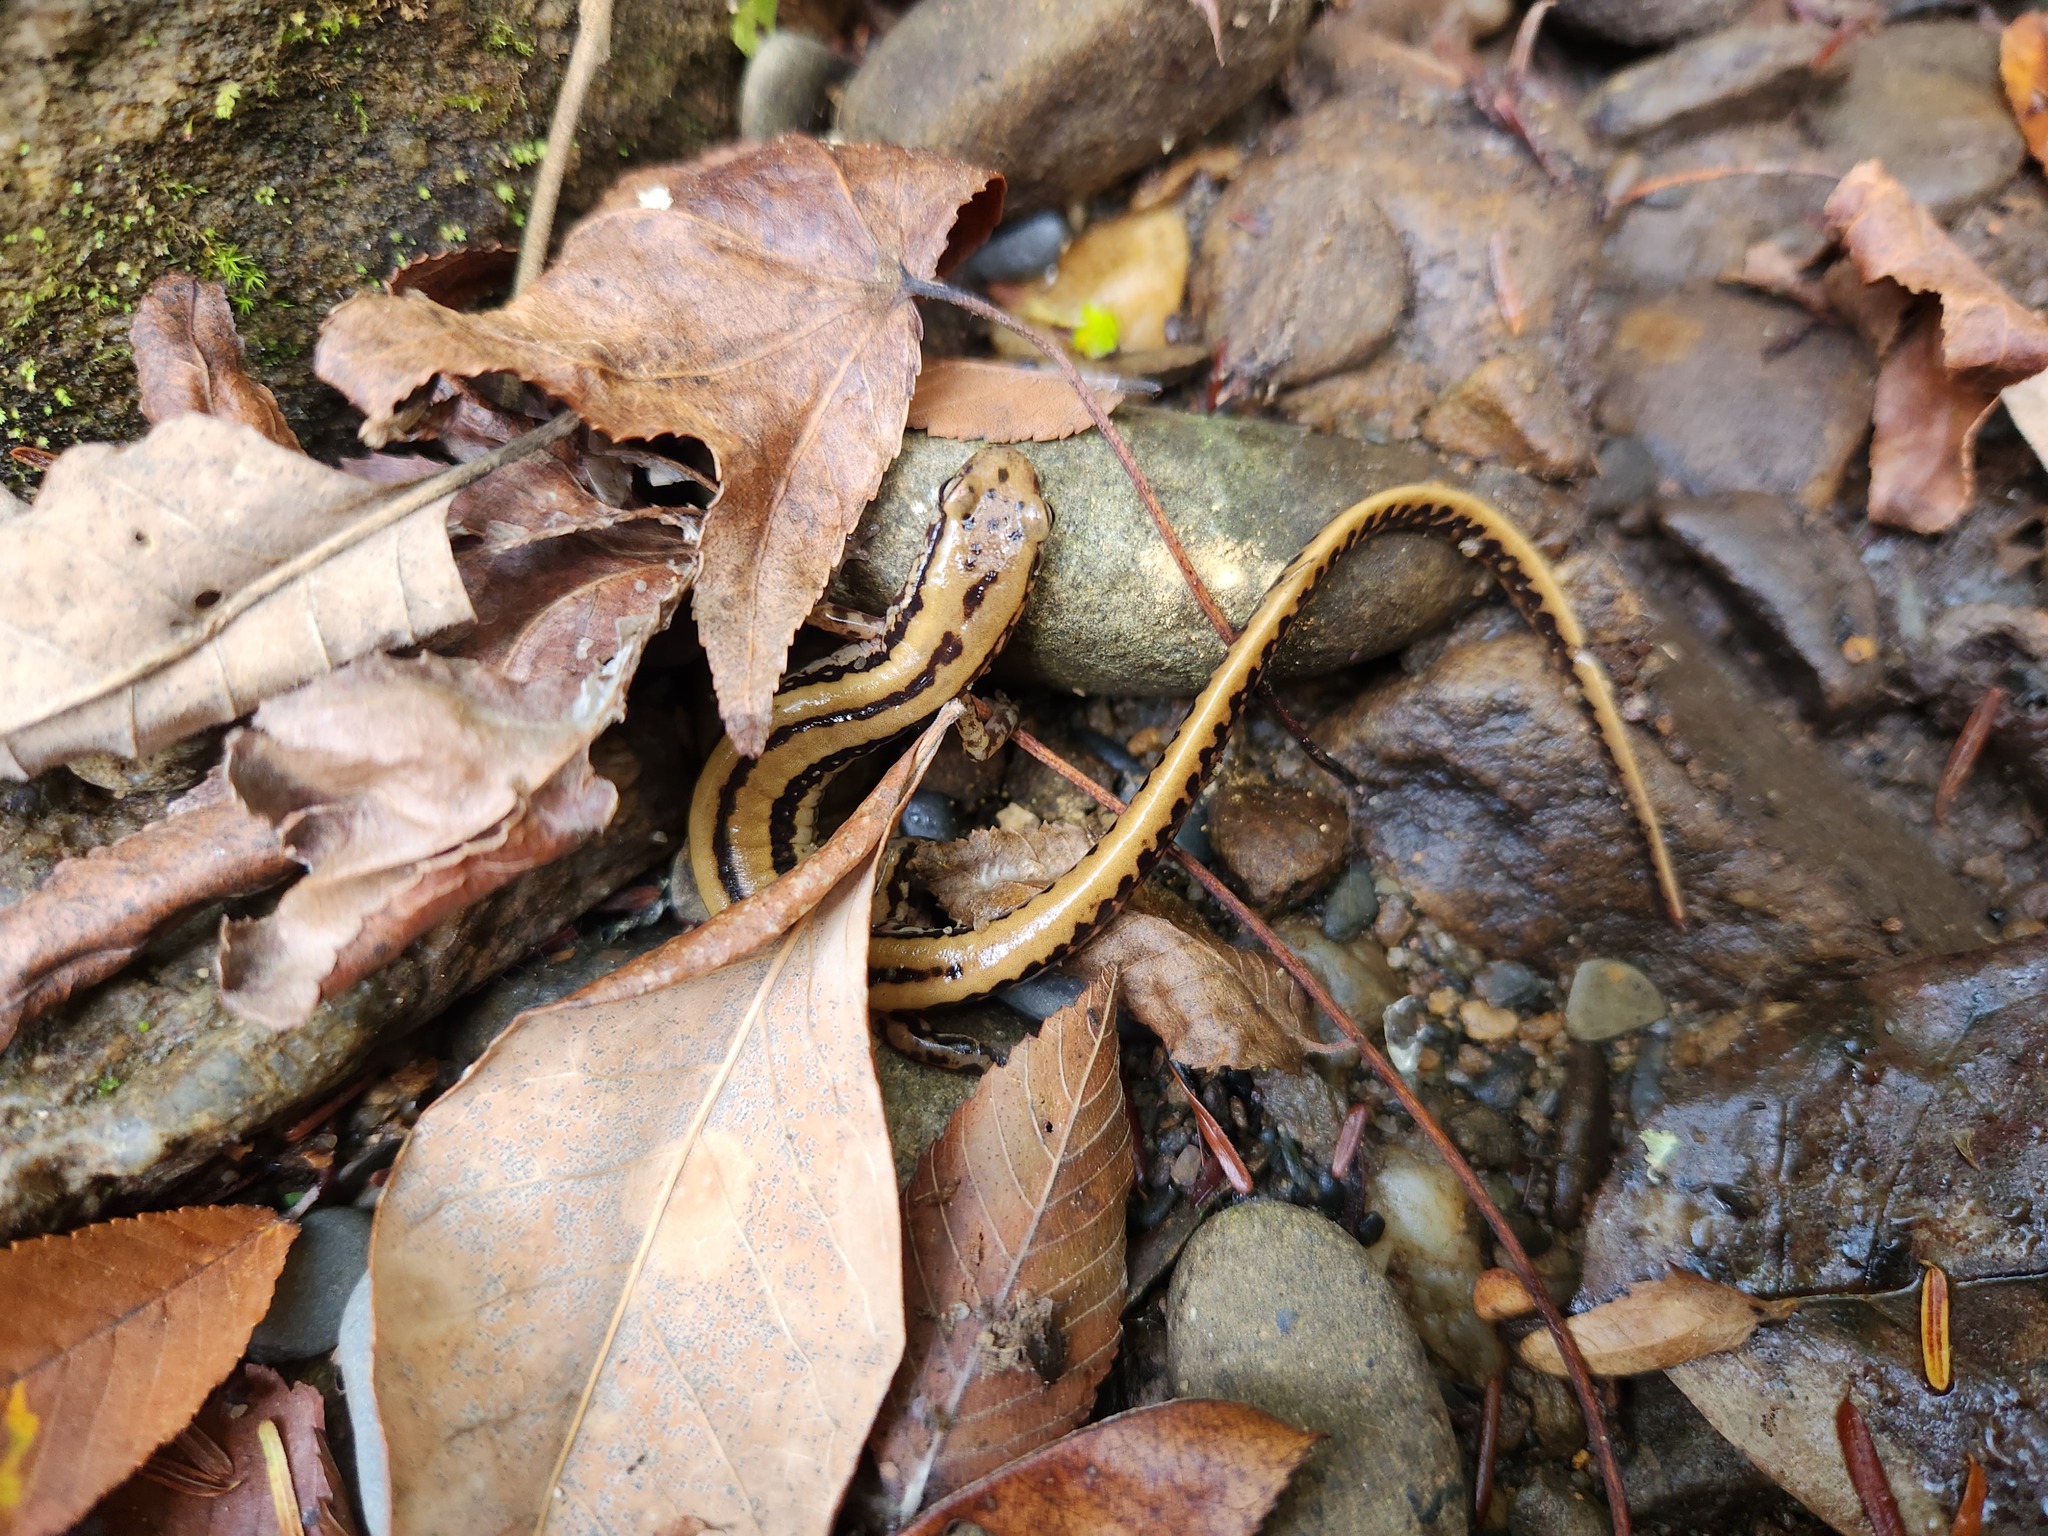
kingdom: Animalia
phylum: Chordata
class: Amphibia
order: Caudata
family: Plethodontidae
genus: Eurycea
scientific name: Eurycea guttolineata
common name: Three-lined salamander
